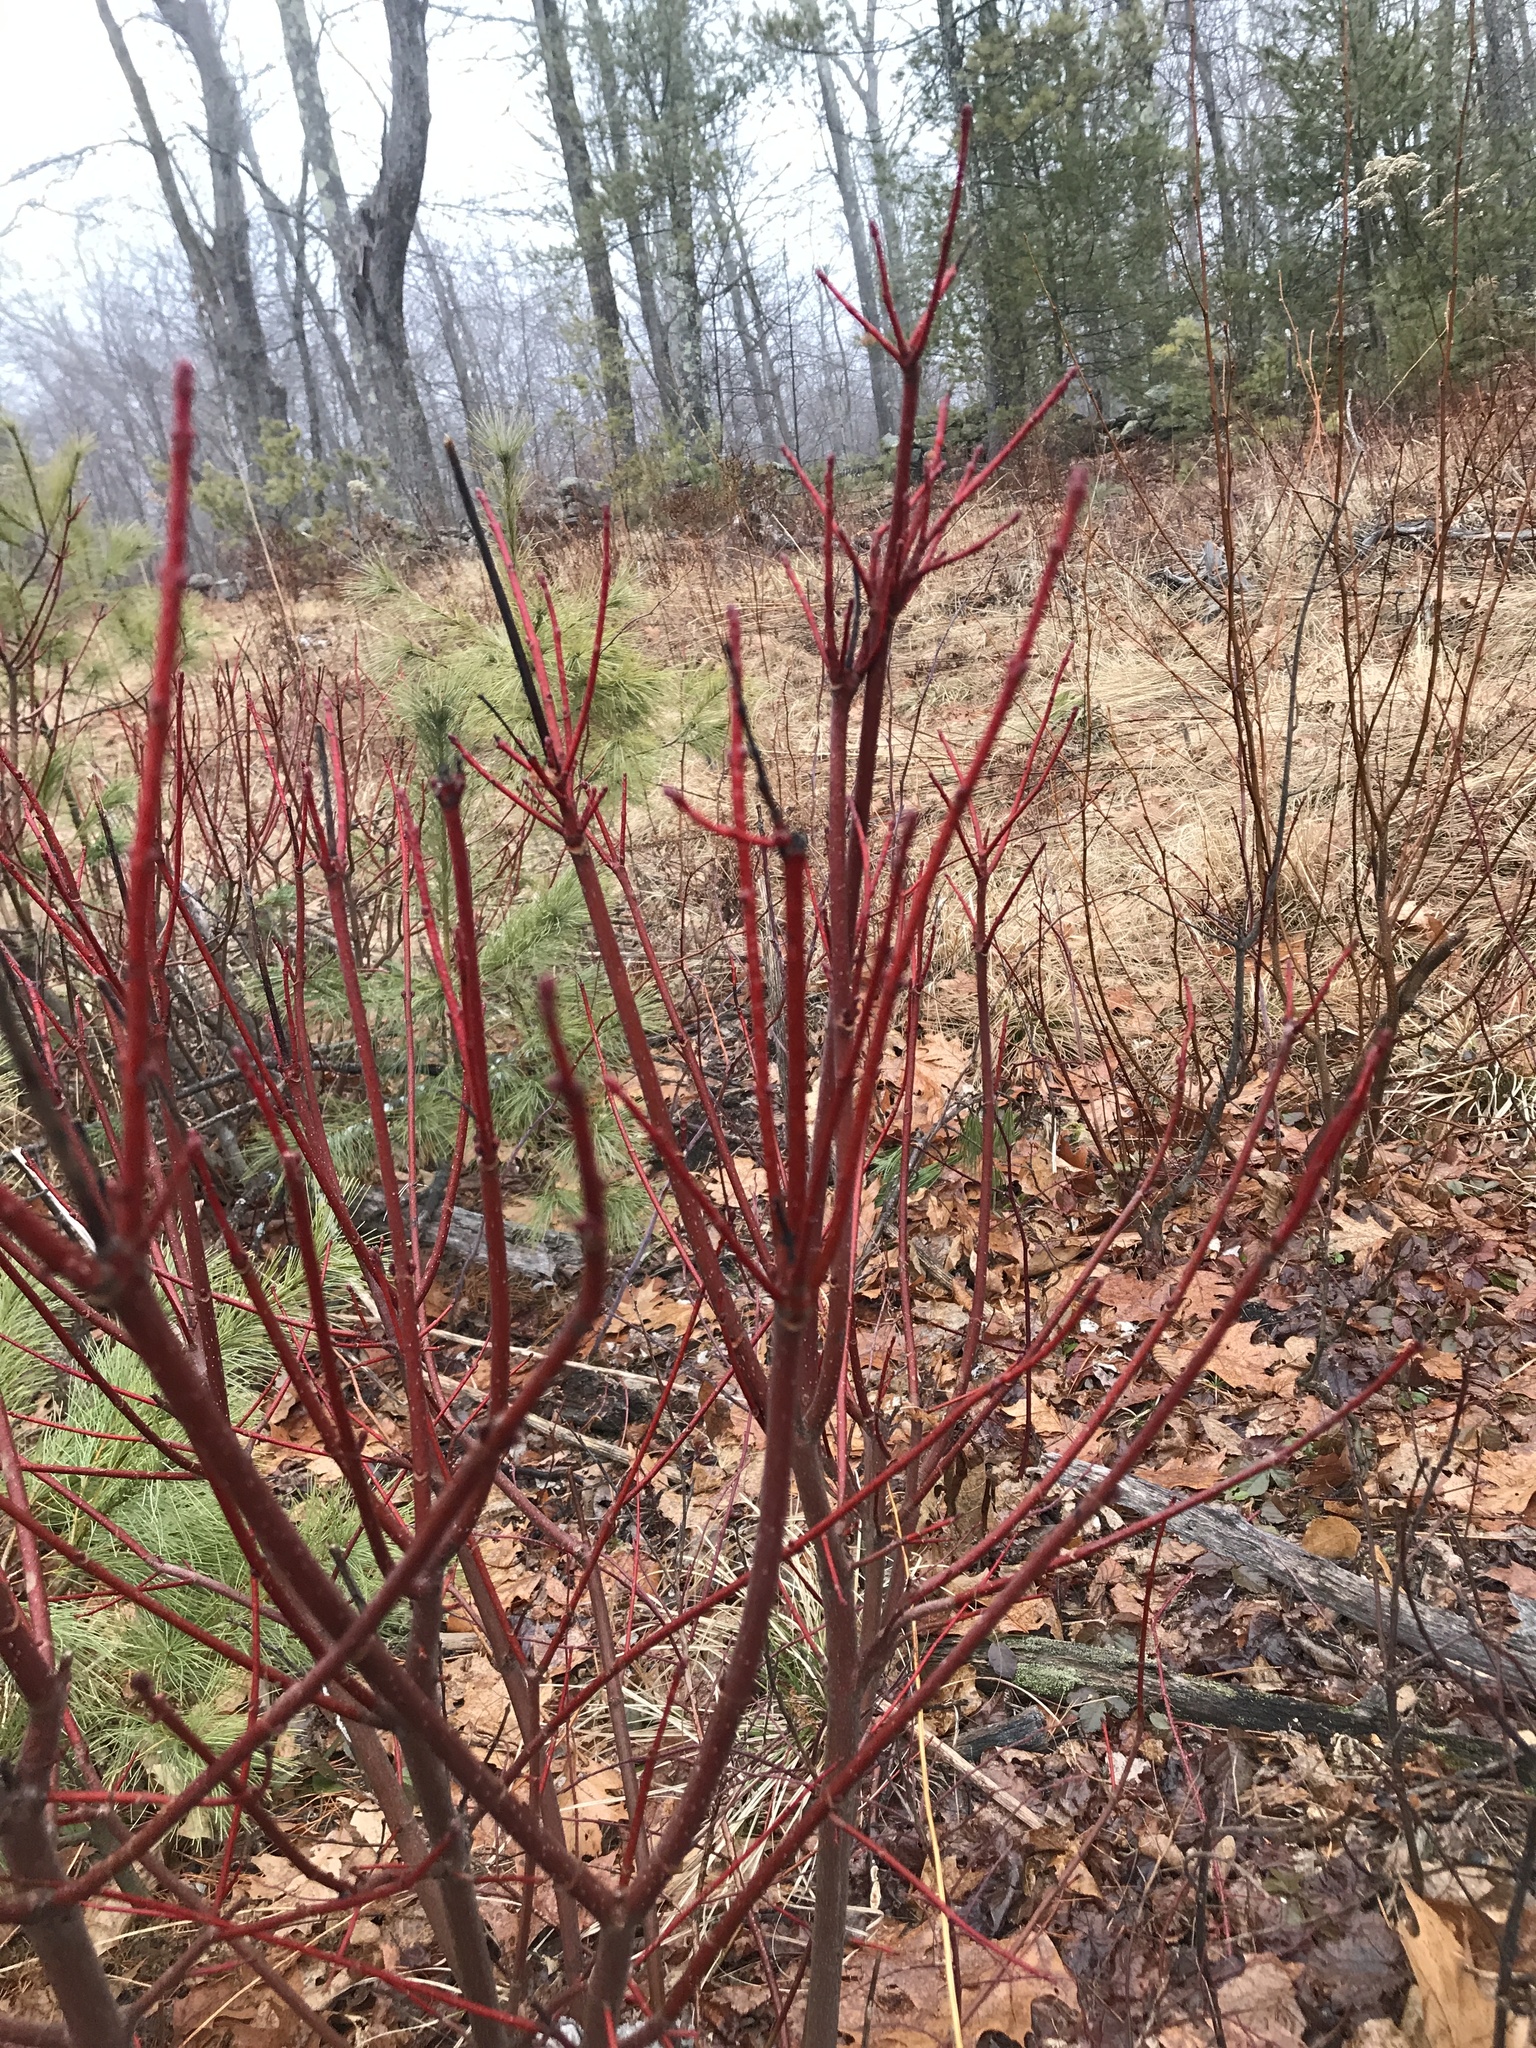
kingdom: Plantae
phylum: Tracheophyta
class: Magnoliopsida
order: Sapindales
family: Sapindaceae
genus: Acer
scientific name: Acer rubrum
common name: Red maple
